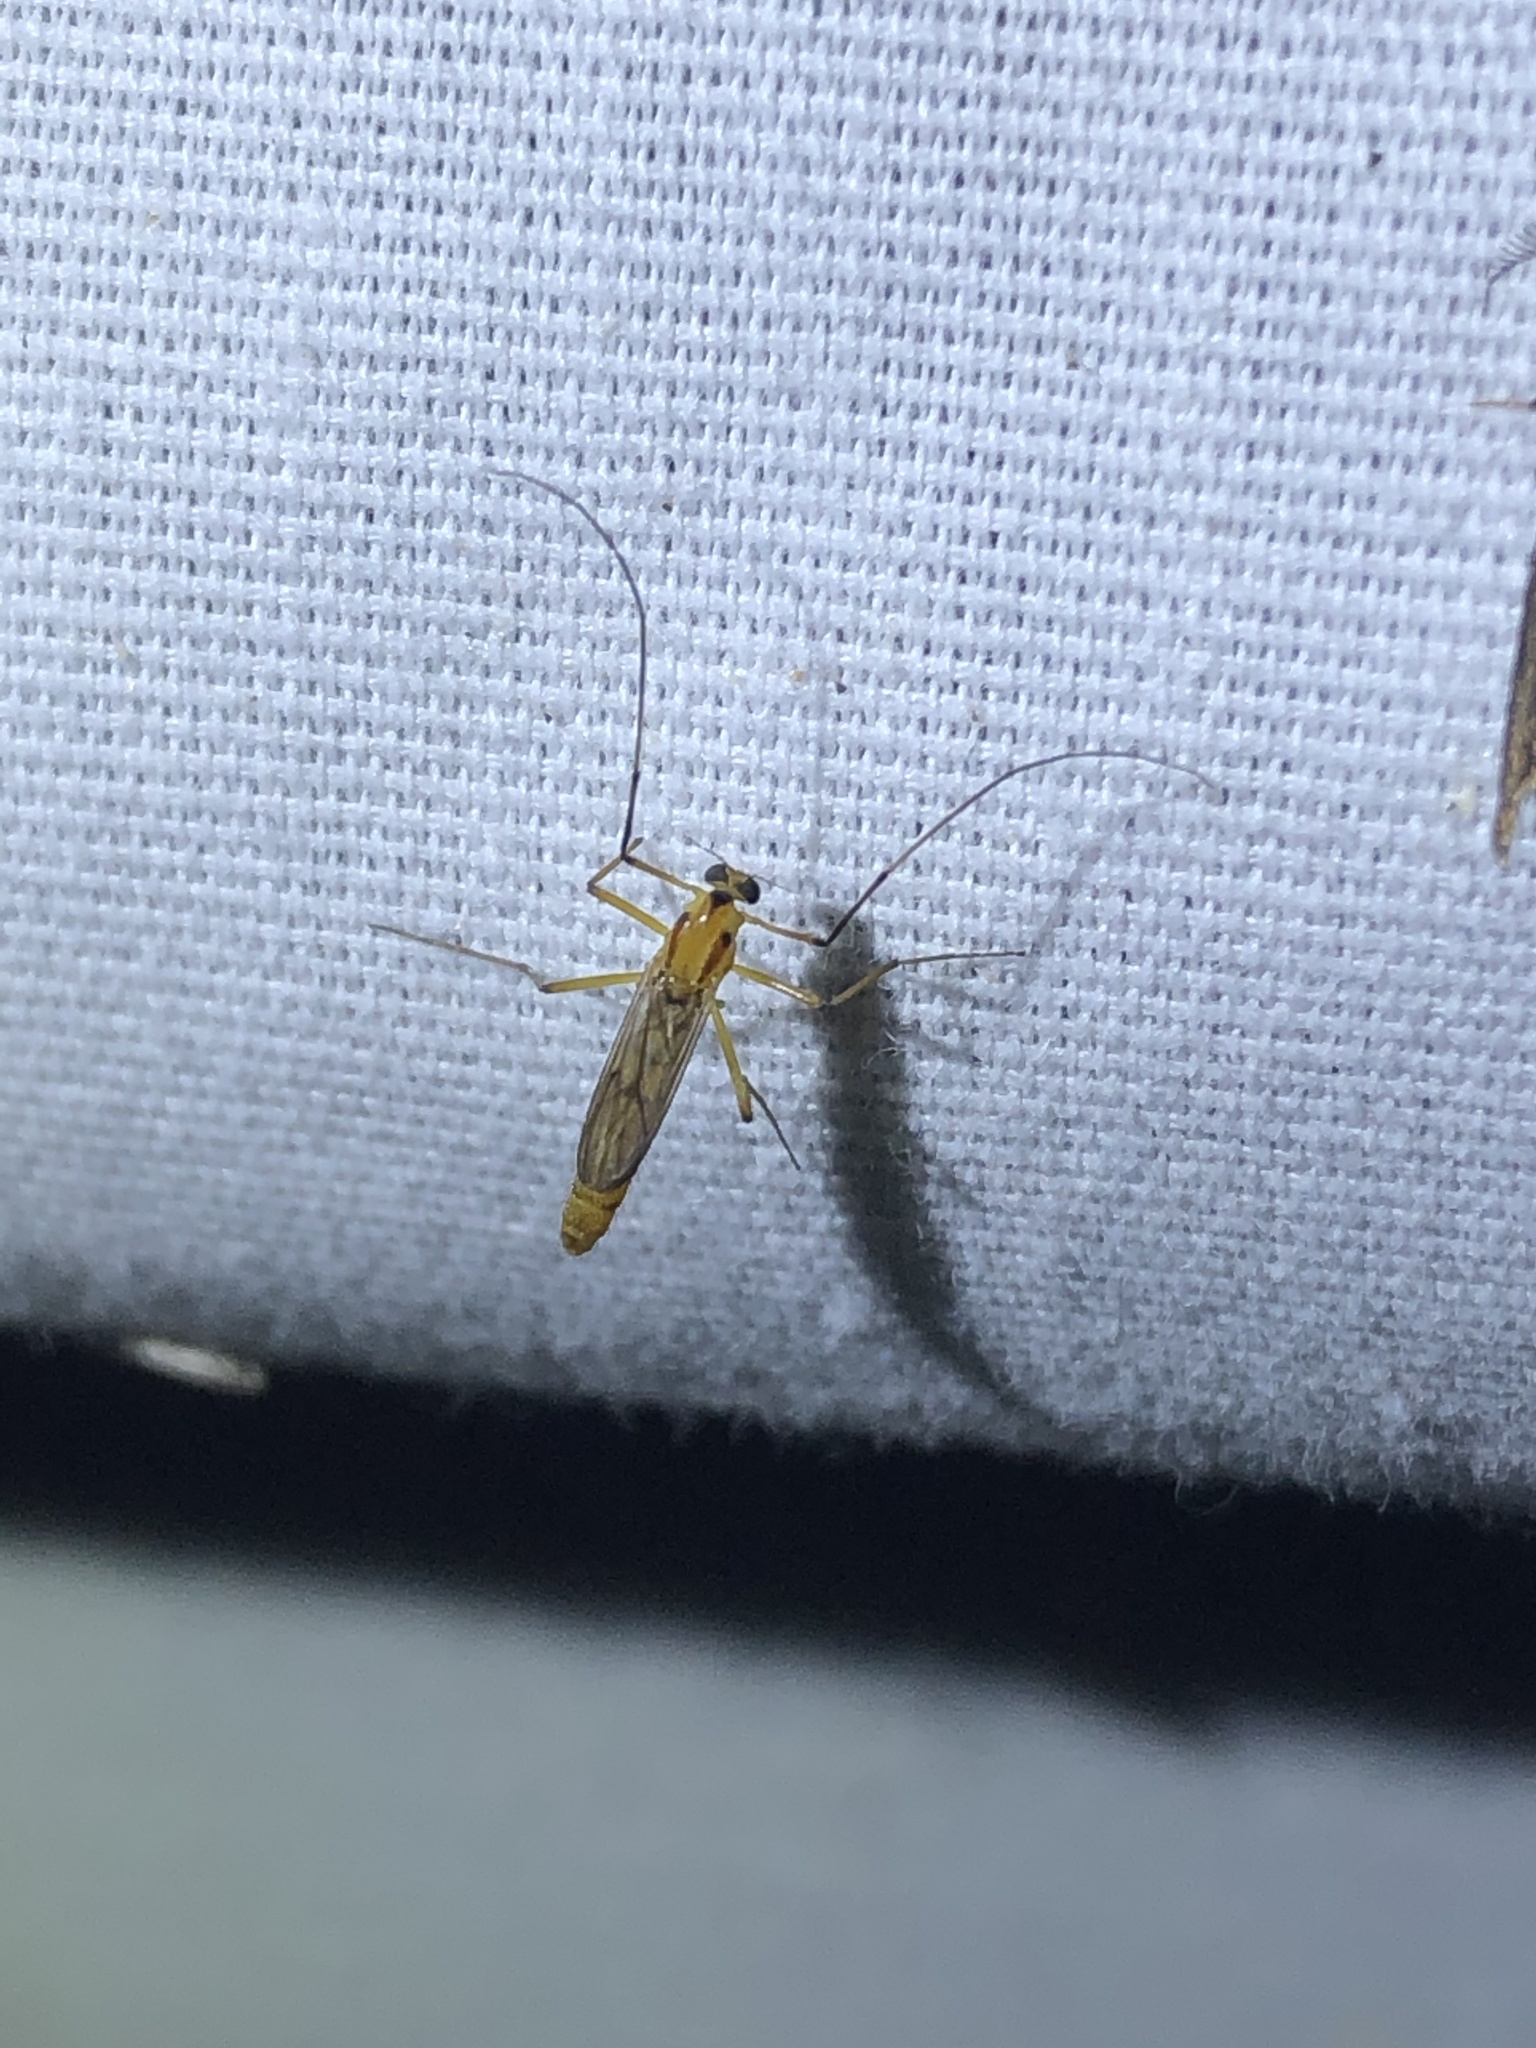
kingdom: Animalia
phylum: Arthropoda
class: Insecta
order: Diptera
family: Chironomidae
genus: Axarus
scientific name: Axarus
